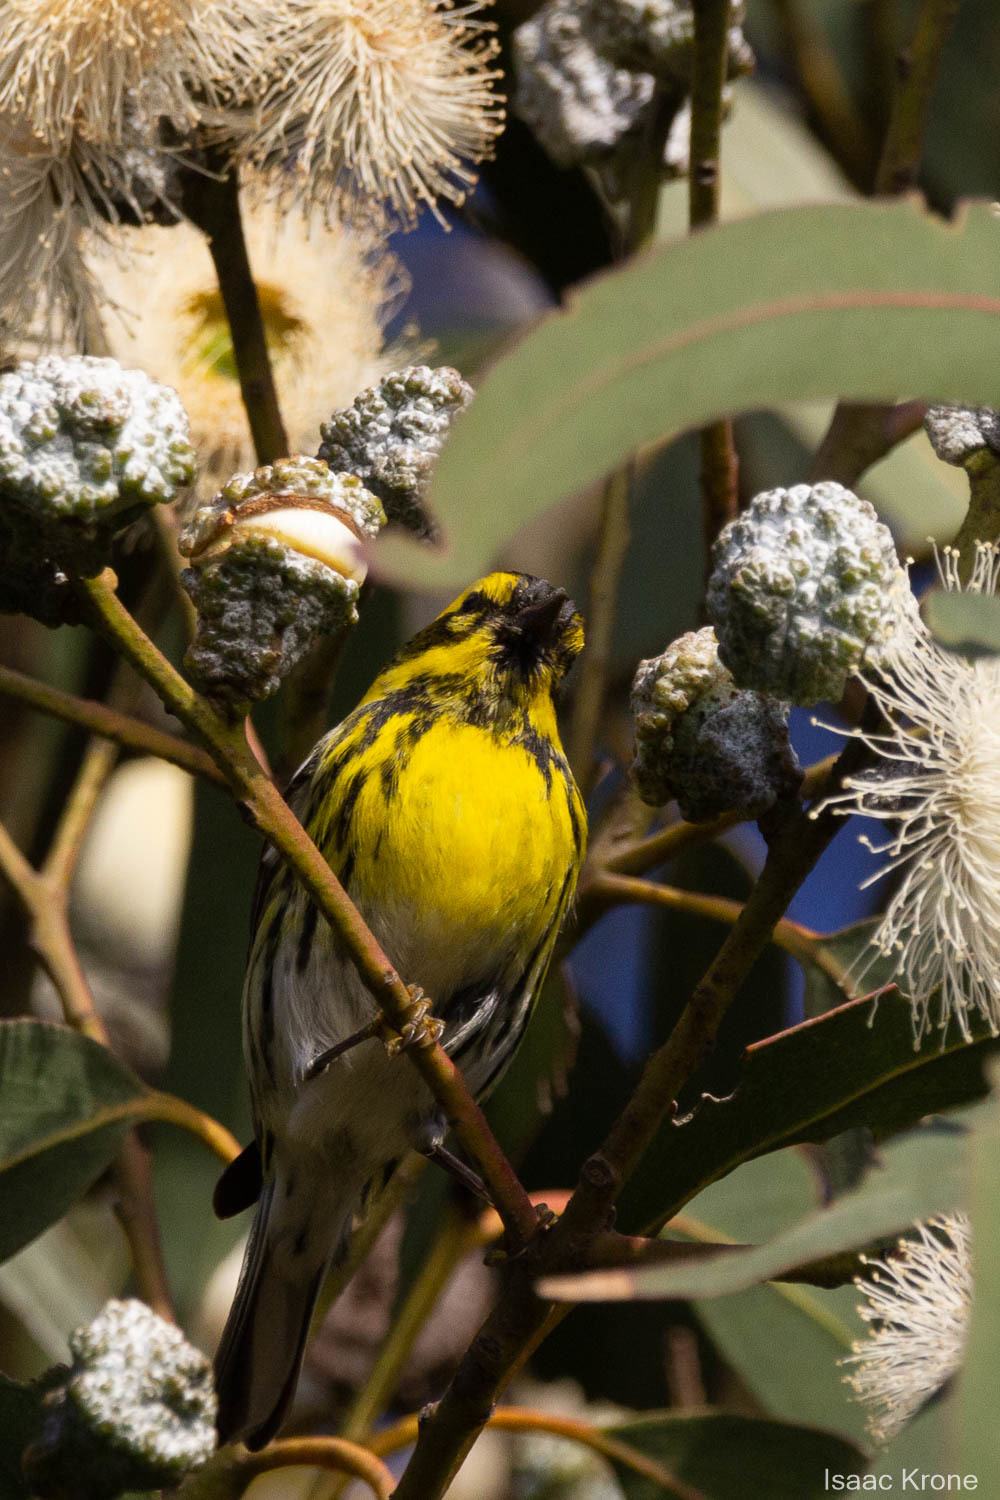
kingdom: Animalia
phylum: Chordata
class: Aves
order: Passeriformes
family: Parulidae
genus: Setophaga
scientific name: Setophaga townsendi
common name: Townsend's warbler
